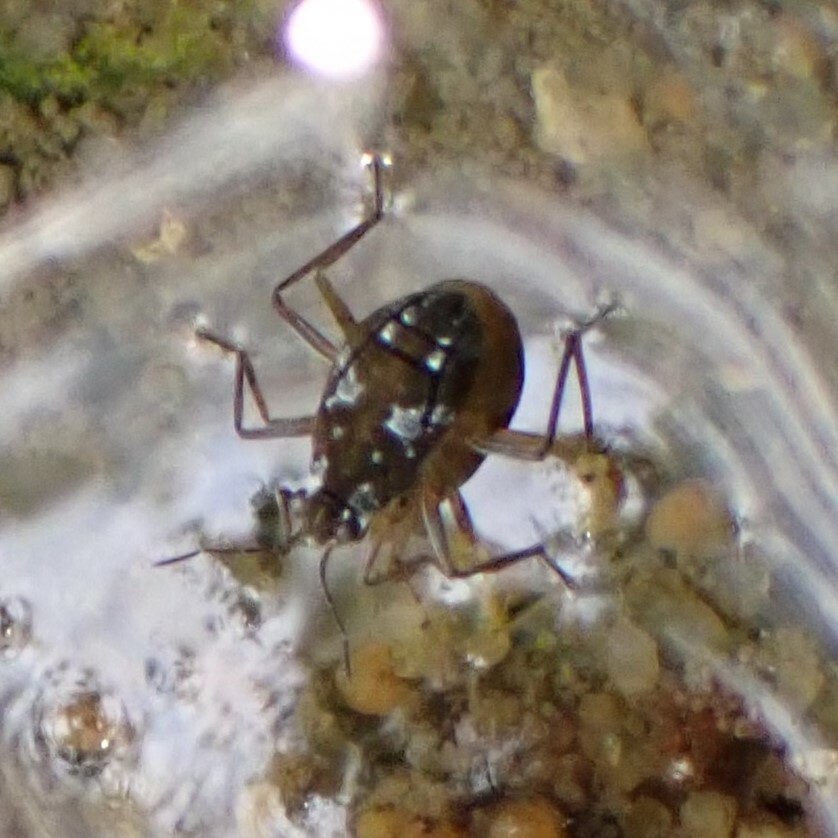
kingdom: Animalia
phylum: Arthropoda
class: Insecta
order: Hemiptera
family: Veliidae
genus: Microvelia
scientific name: Microvelia americana
